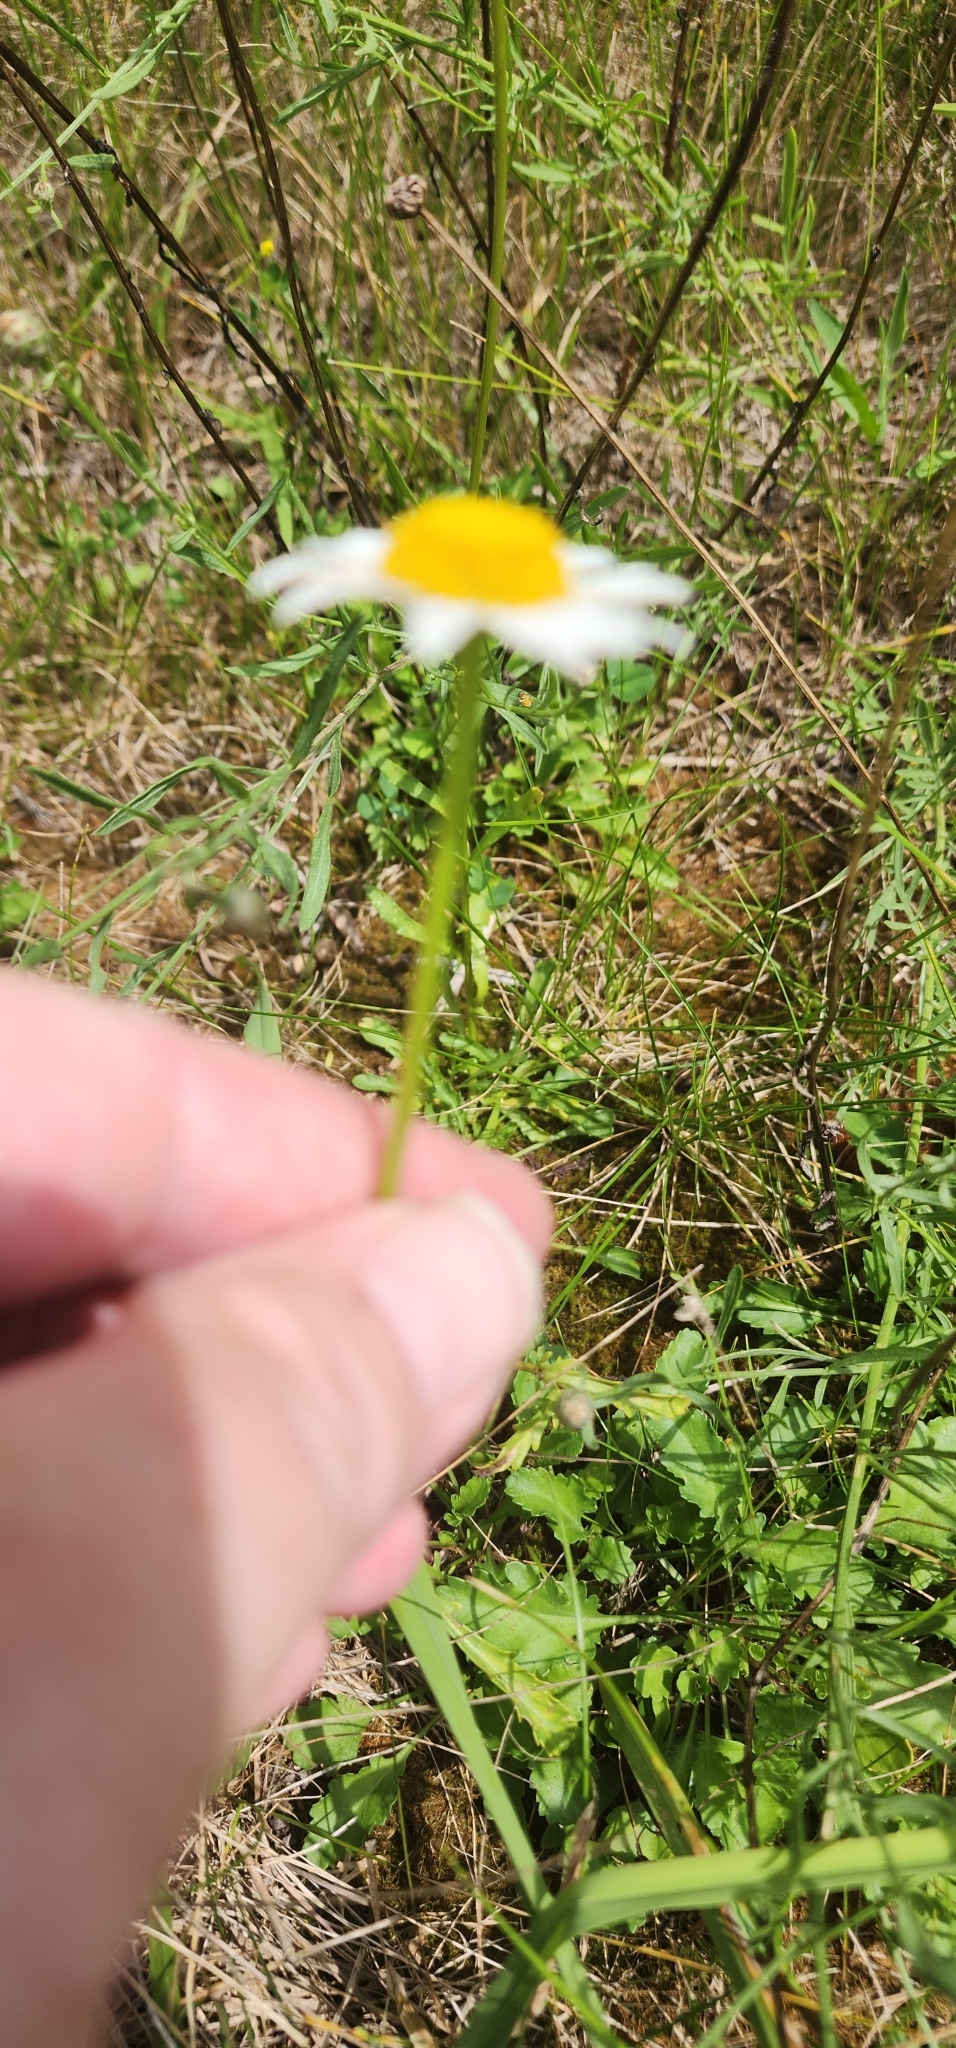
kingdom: Plantae
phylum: Tracheophyta
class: Magnoliopsida
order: Asterales
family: Asteraceae
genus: Leucanthemum
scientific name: Leucanthemum vulgare
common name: Oxeye daisy
